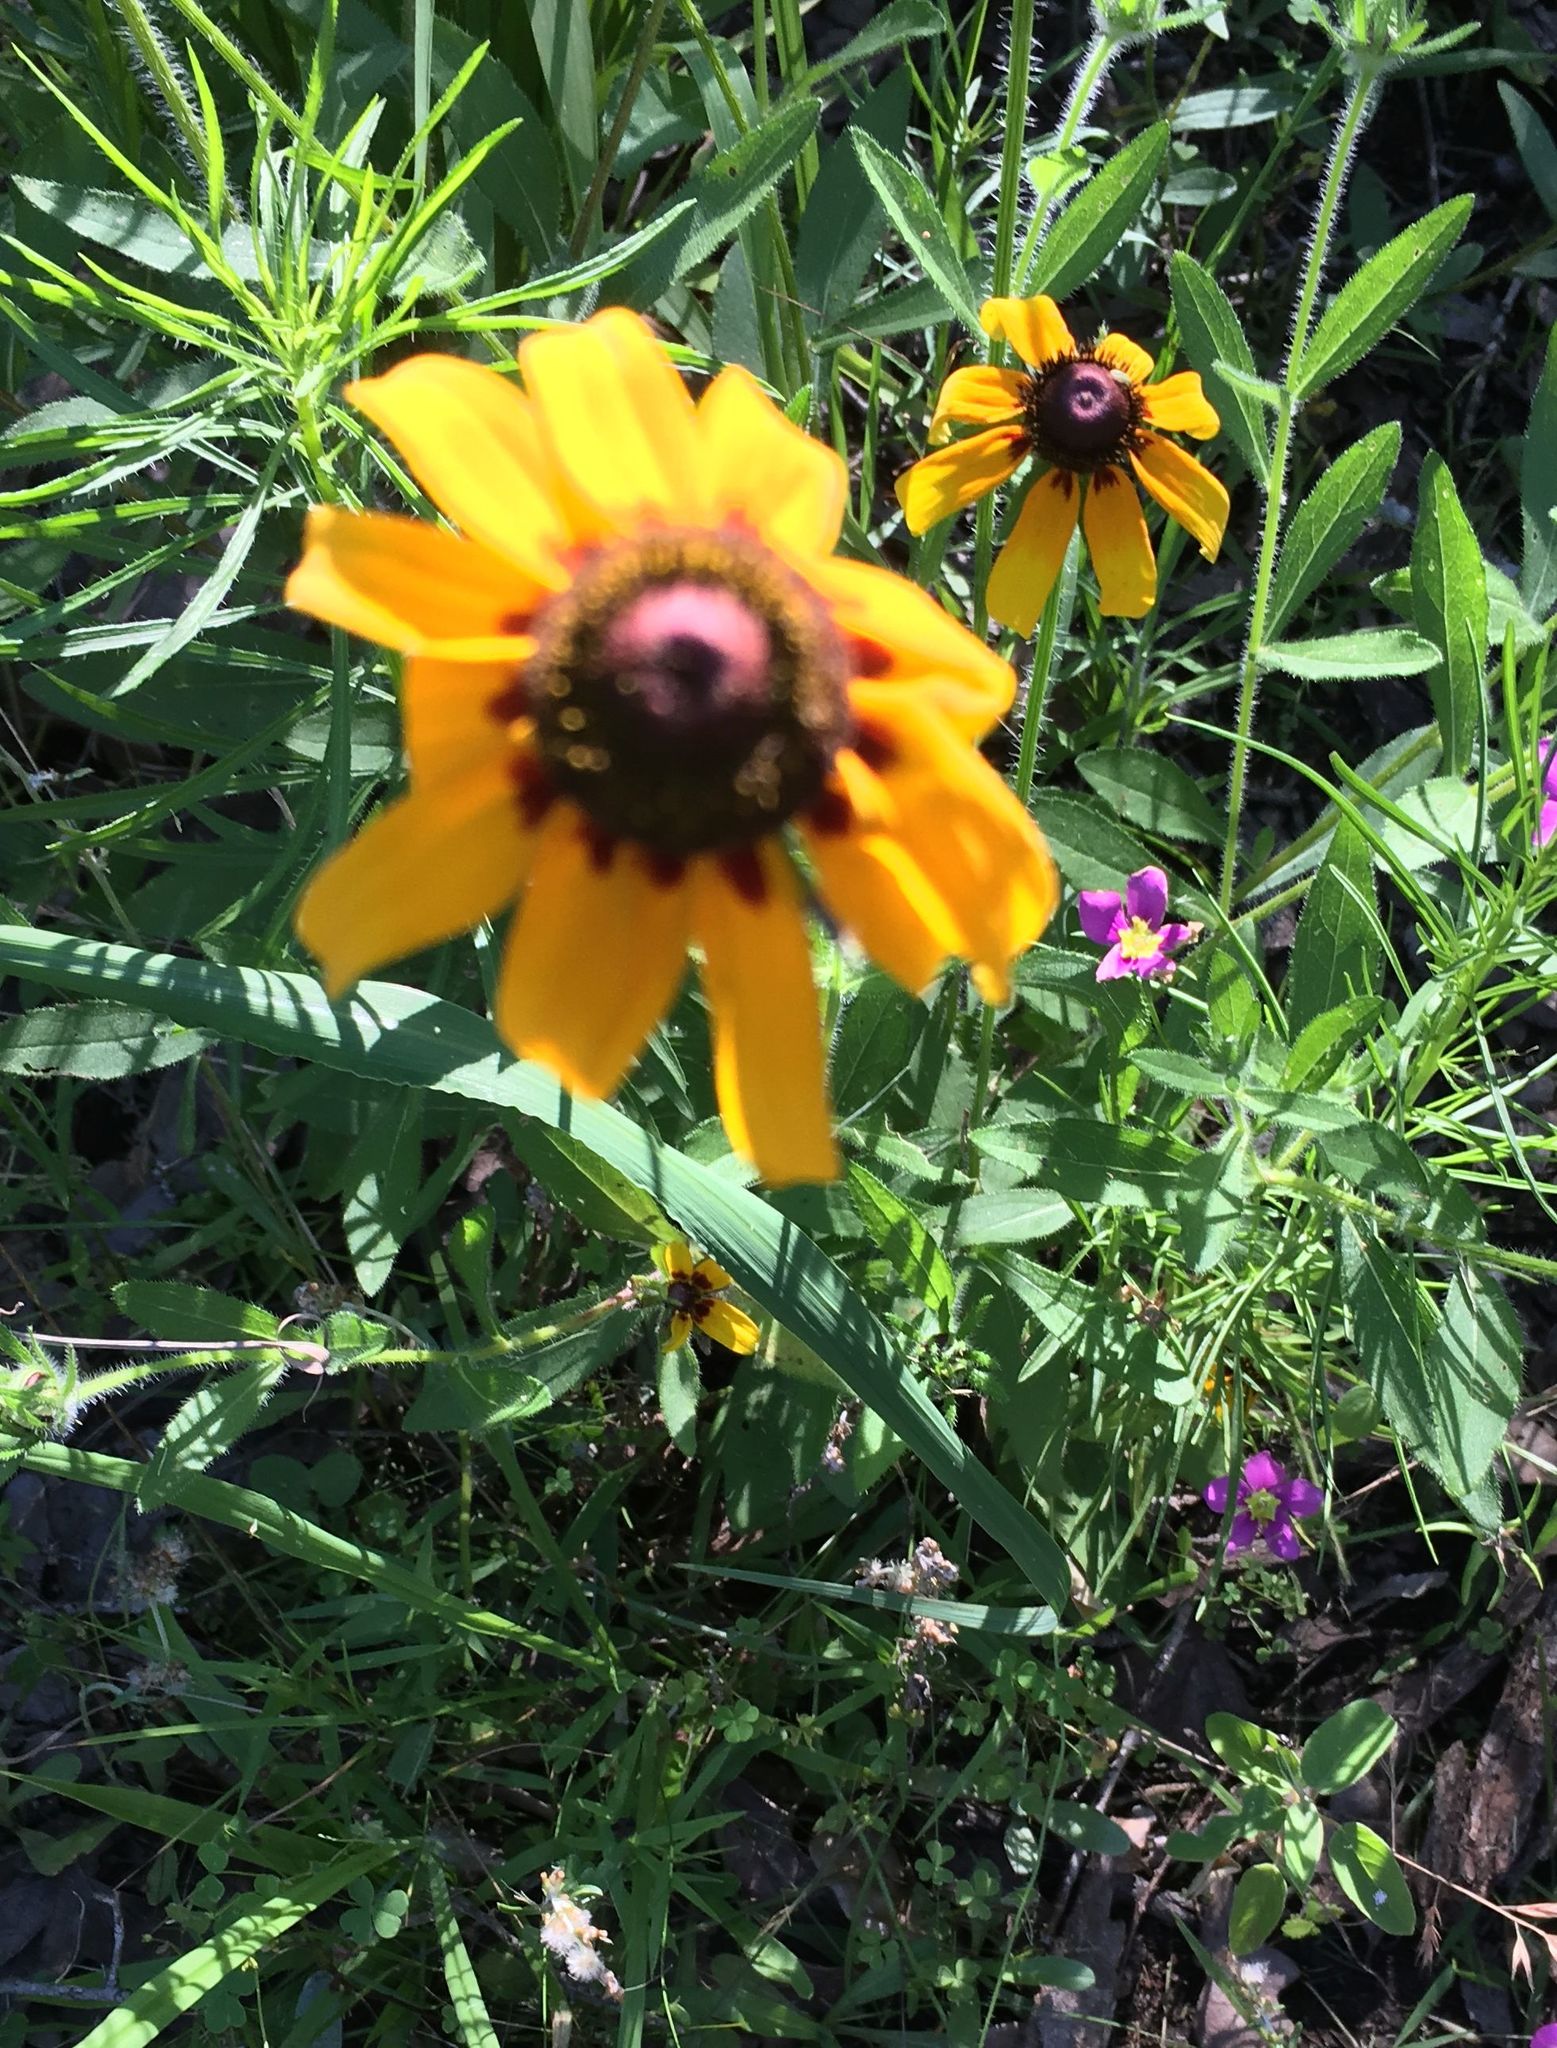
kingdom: Plantae
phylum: Tracheophyta
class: Magnoliopsida
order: Asterales
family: Asteraceae
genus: Rudbeckia
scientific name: Rudbeckia hirta
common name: Black-eyed-susan
